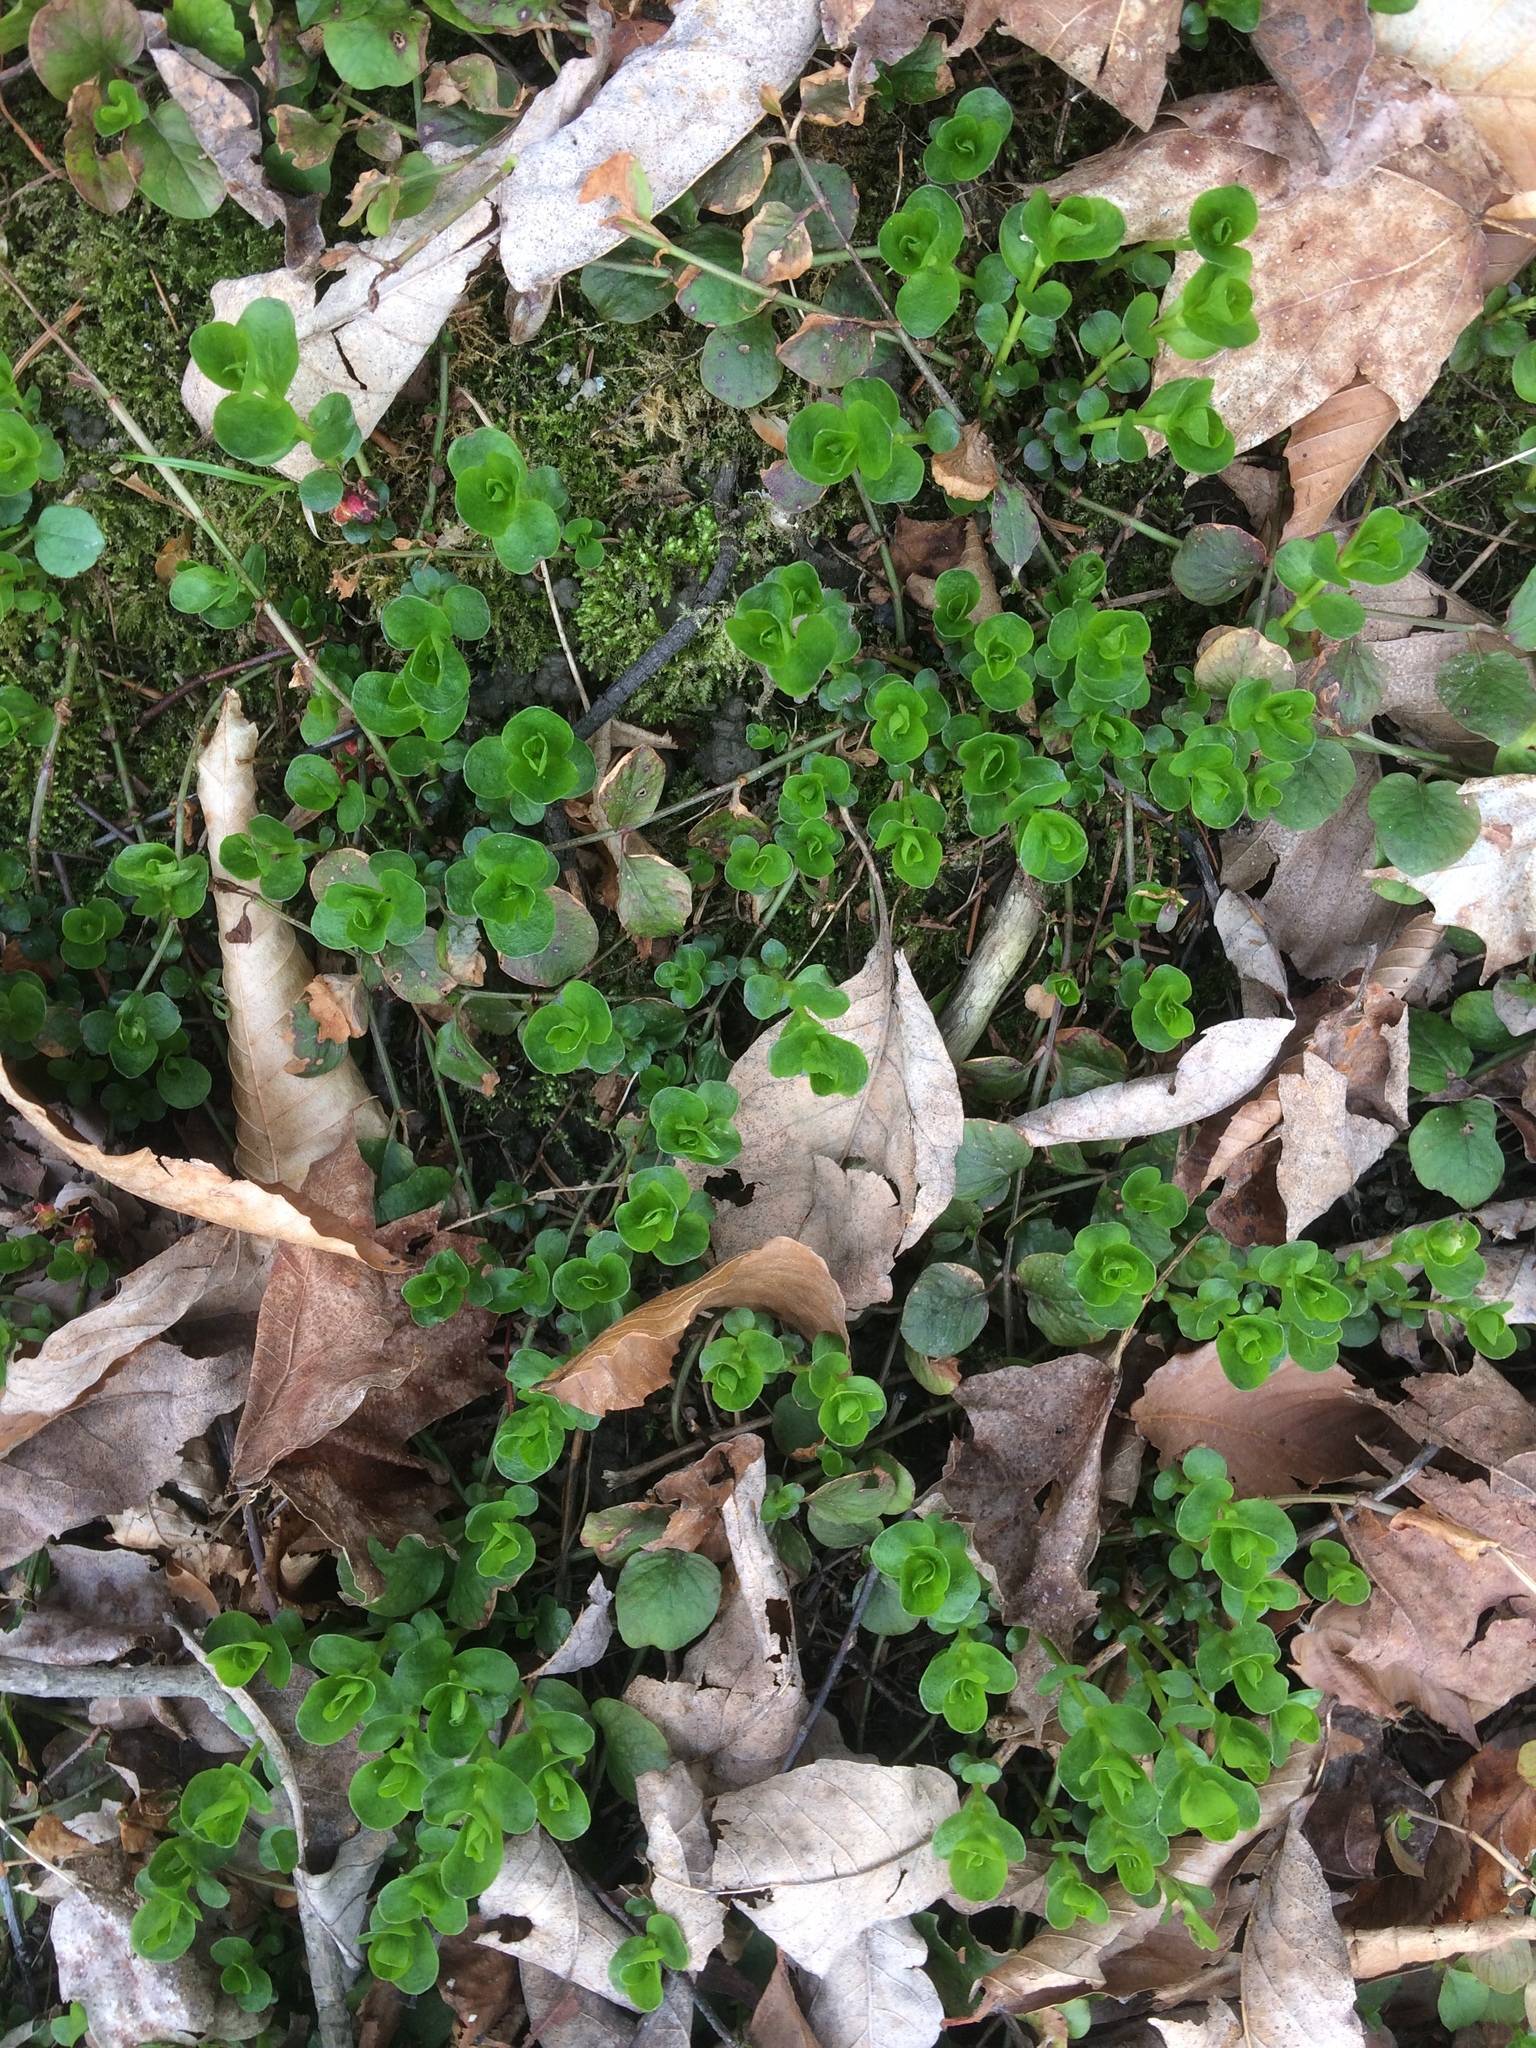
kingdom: Plantae
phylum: Tracheophyta
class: Magnoliopsida
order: Ericales
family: Primulaceae
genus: Lysimachia
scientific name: Lysimachia nummularia
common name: Moneywort
